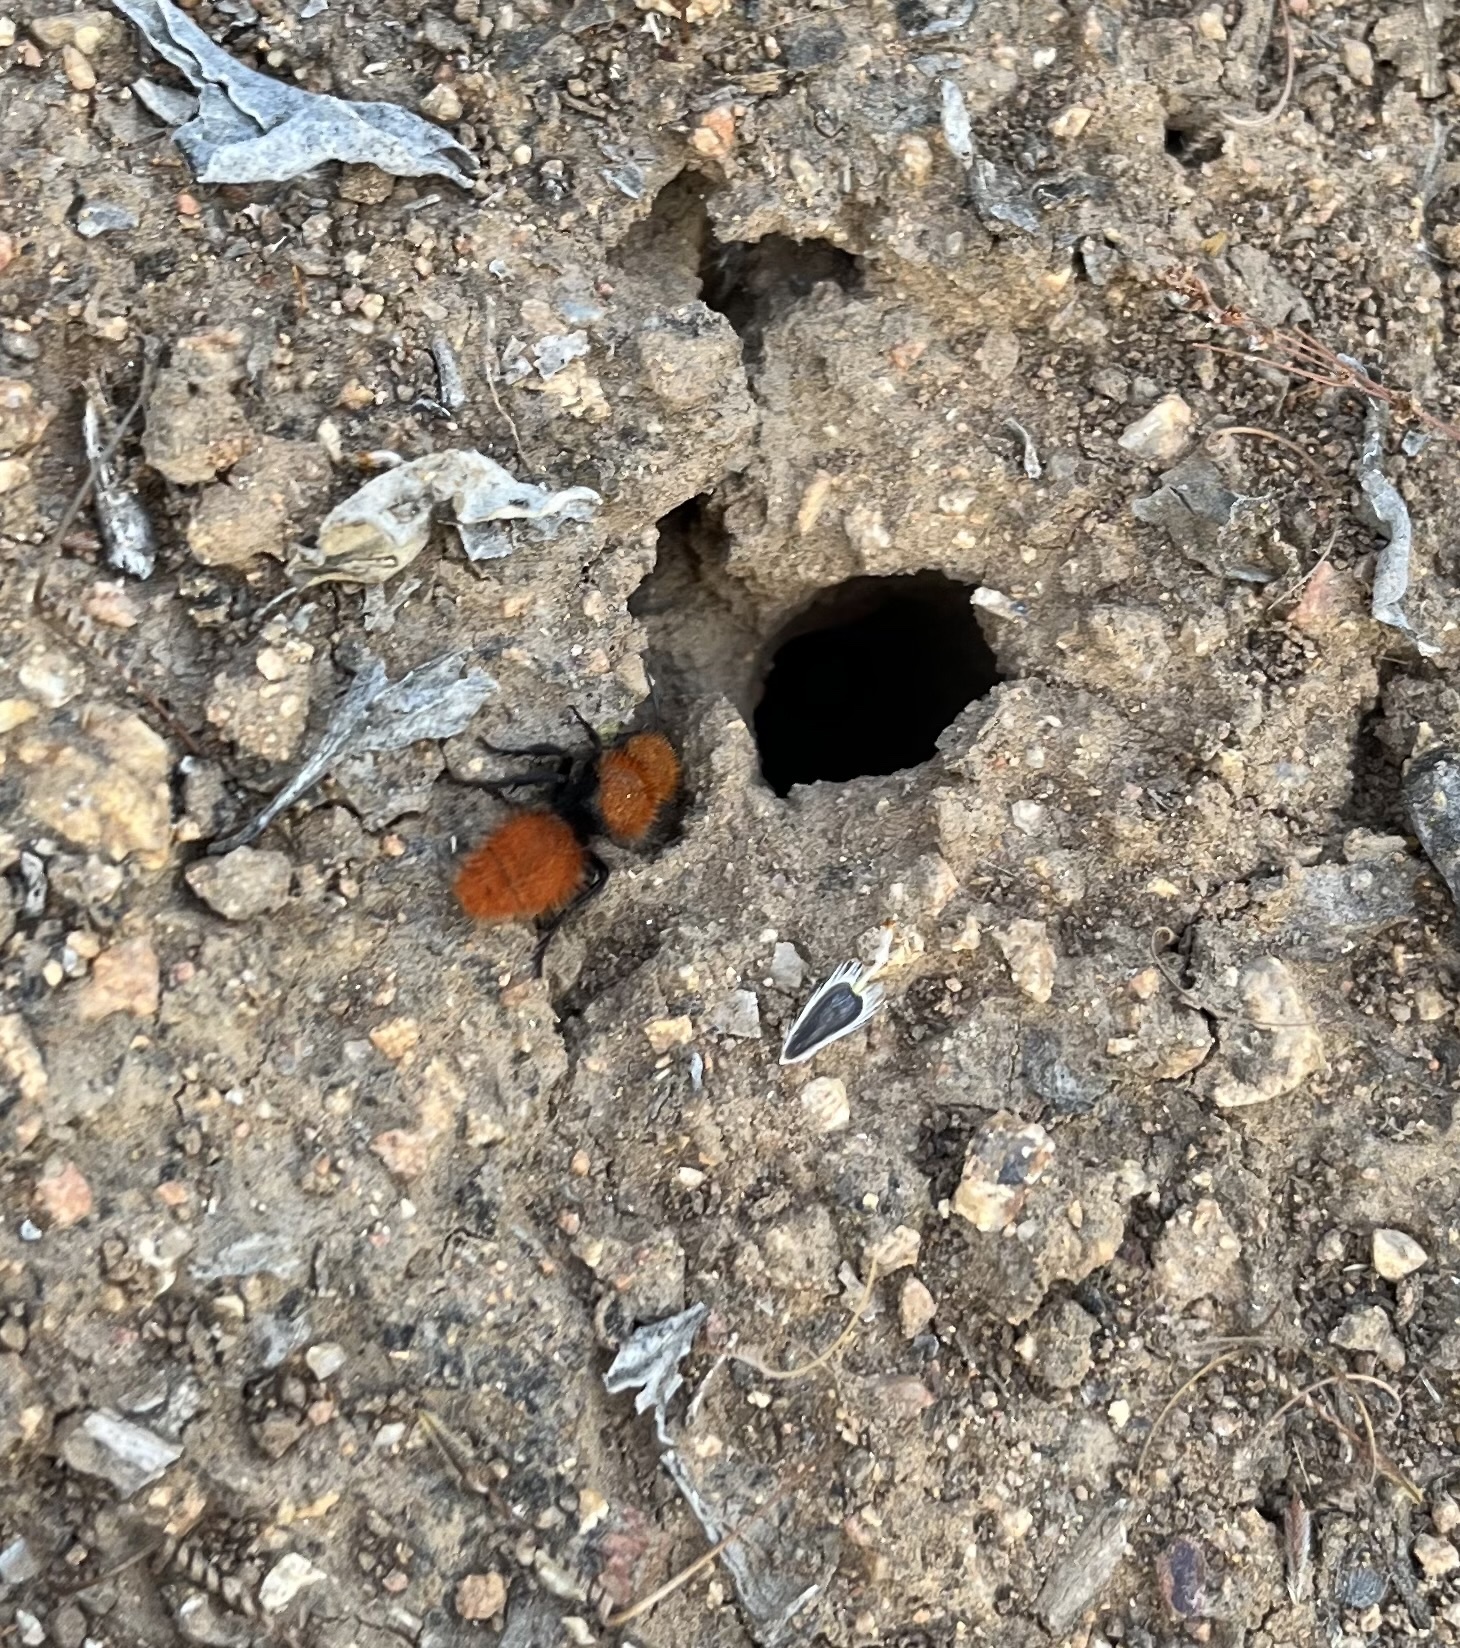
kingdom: Animalia
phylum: Arthropoda
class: Insecta
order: Hymenoptera
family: Mutillidae
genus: Dasymutilla
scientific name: Dasymutilla
